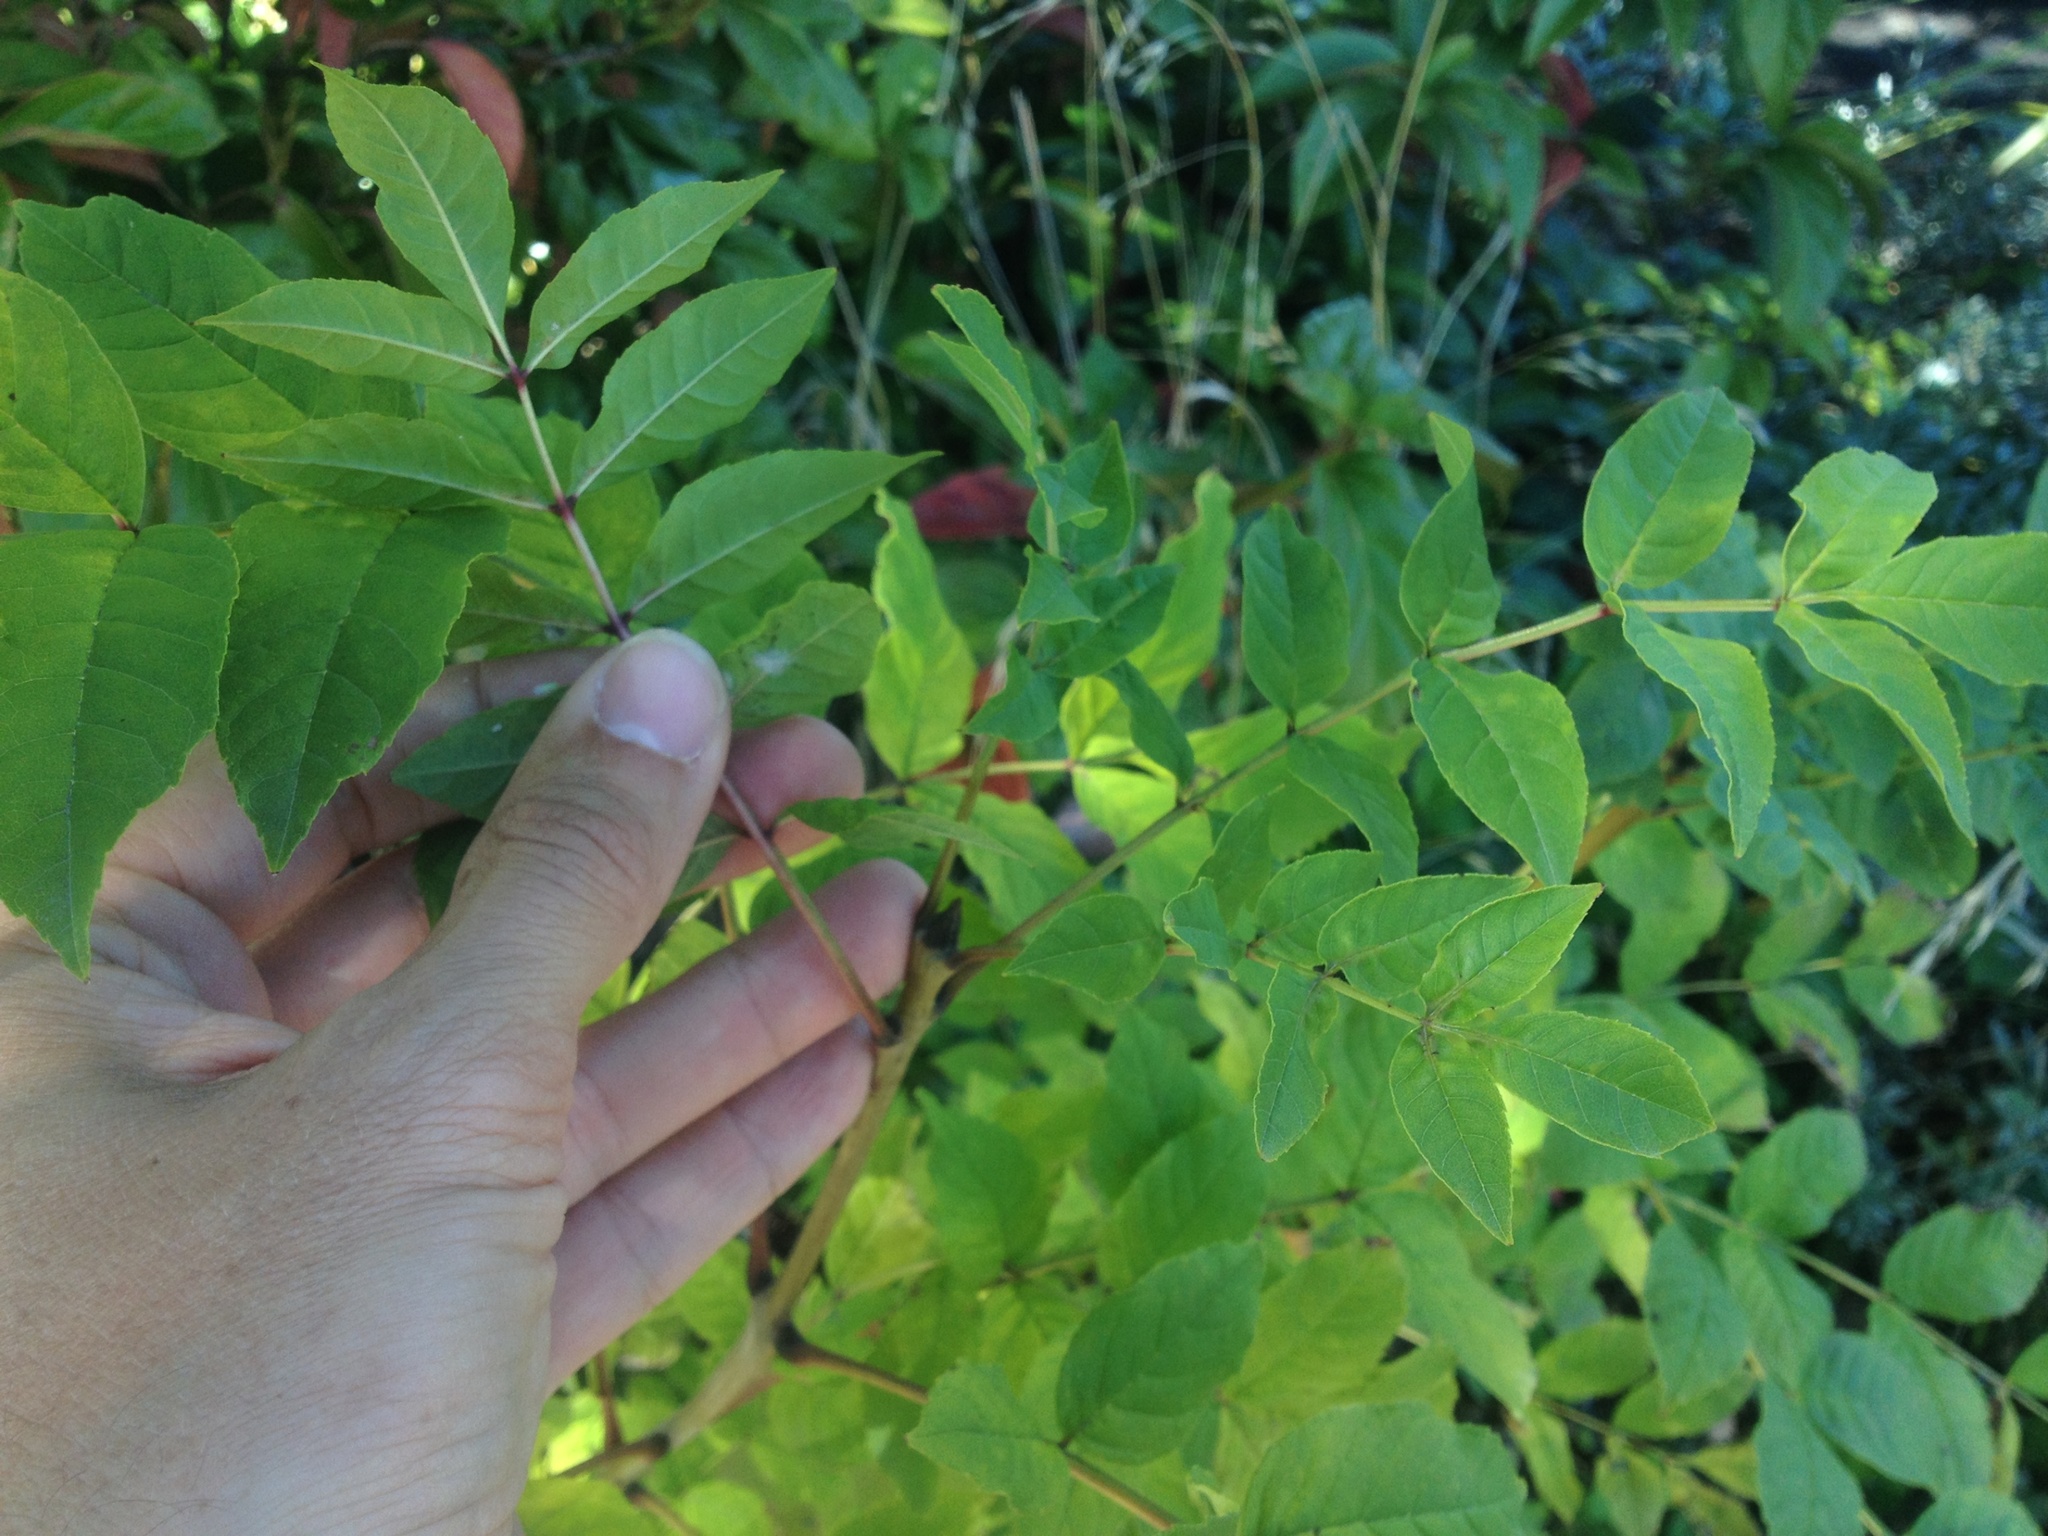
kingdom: Plantae
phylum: Tracheophyta
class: Magnoliopsida
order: Lamiales
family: Oleaceae
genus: Fraxinus
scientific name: Fraxinus excelsior
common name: European ash
